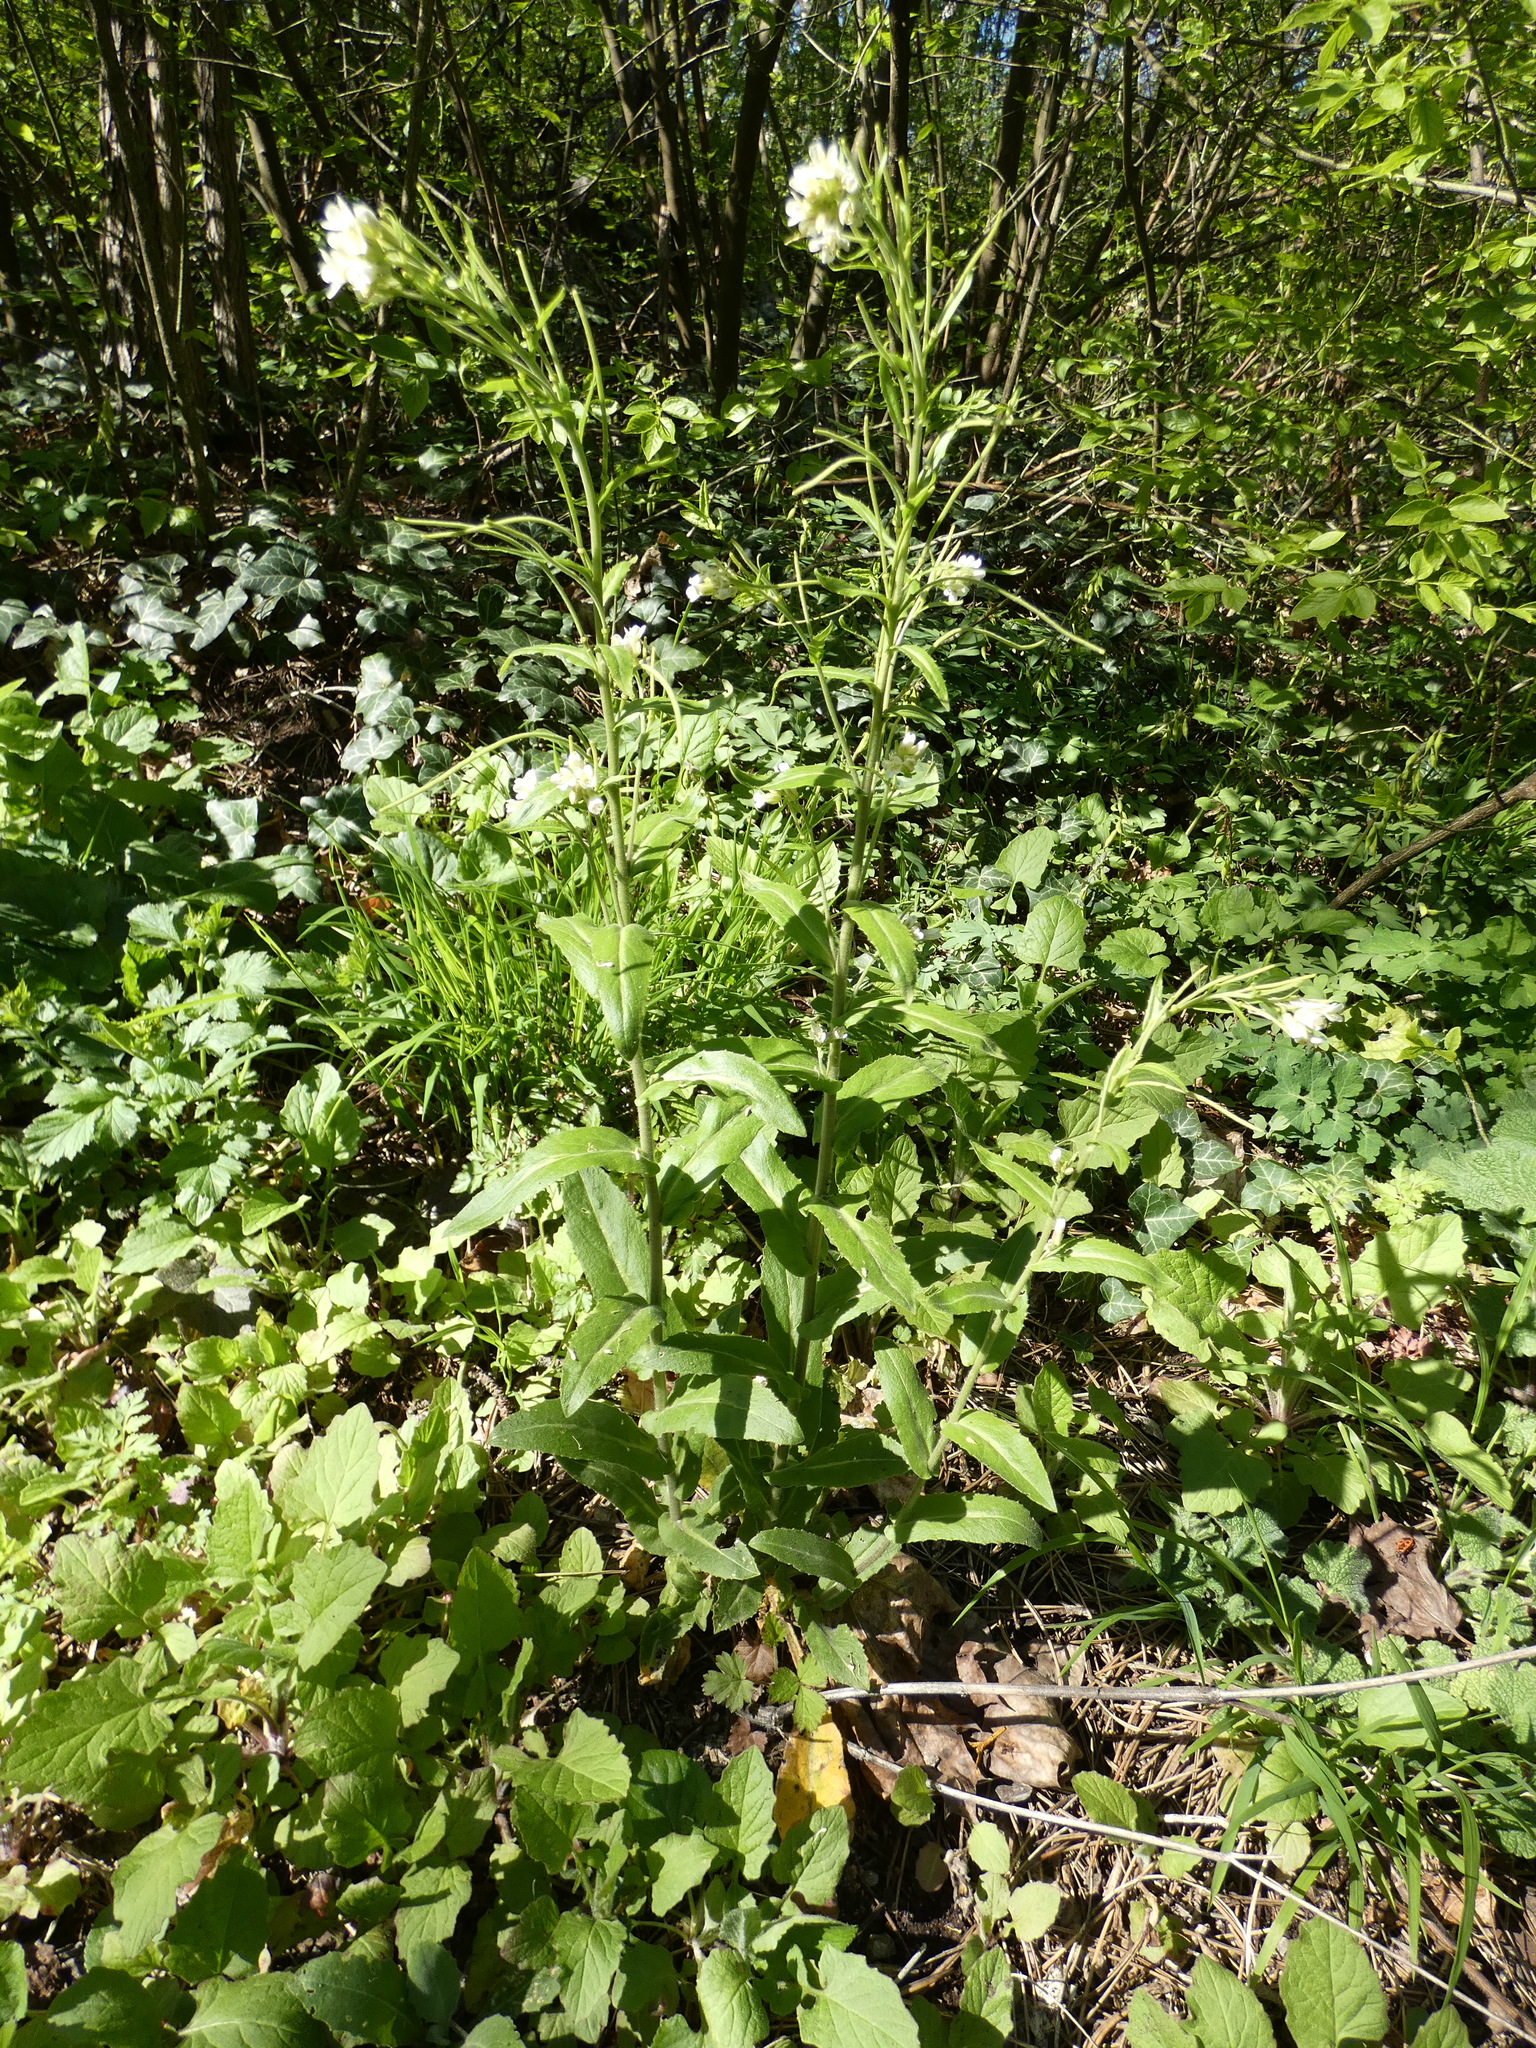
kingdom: Plantae
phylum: Tracheophyta
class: Magnoliopsida
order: Brassicales
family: Brassicaceae
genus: Pseudoturritis
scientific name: Pseudoturritis turrita
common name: Tower cress
